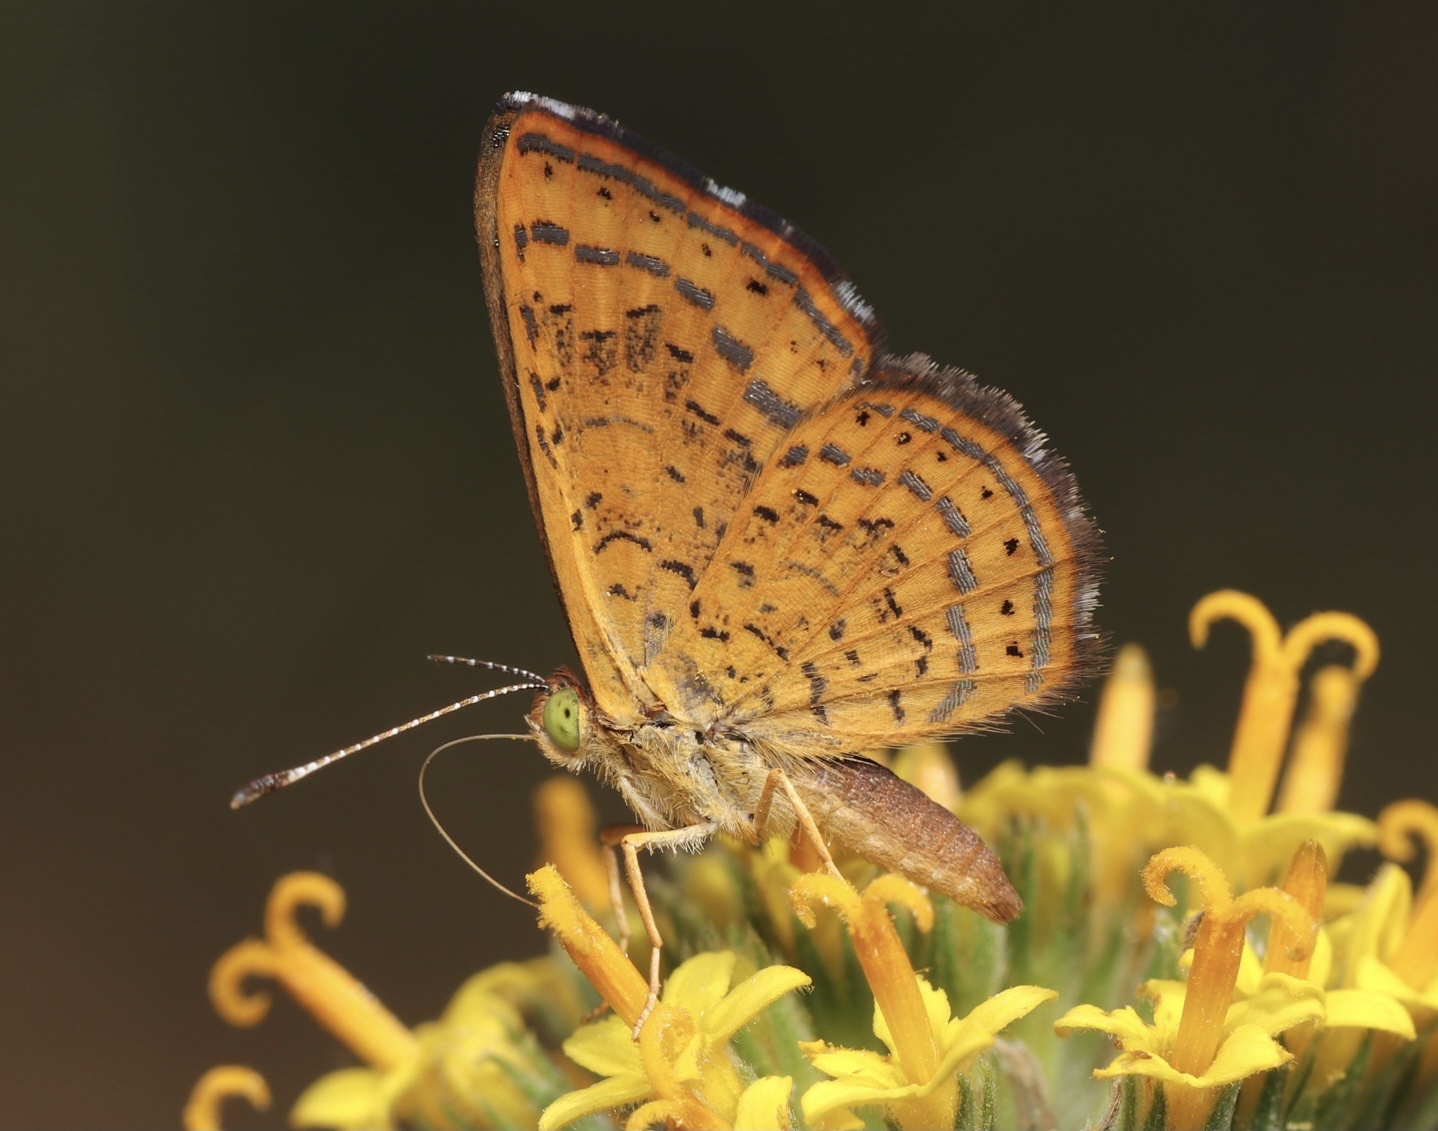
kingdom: Animalia
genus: Calephelis
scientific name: Calephelis nemesis
